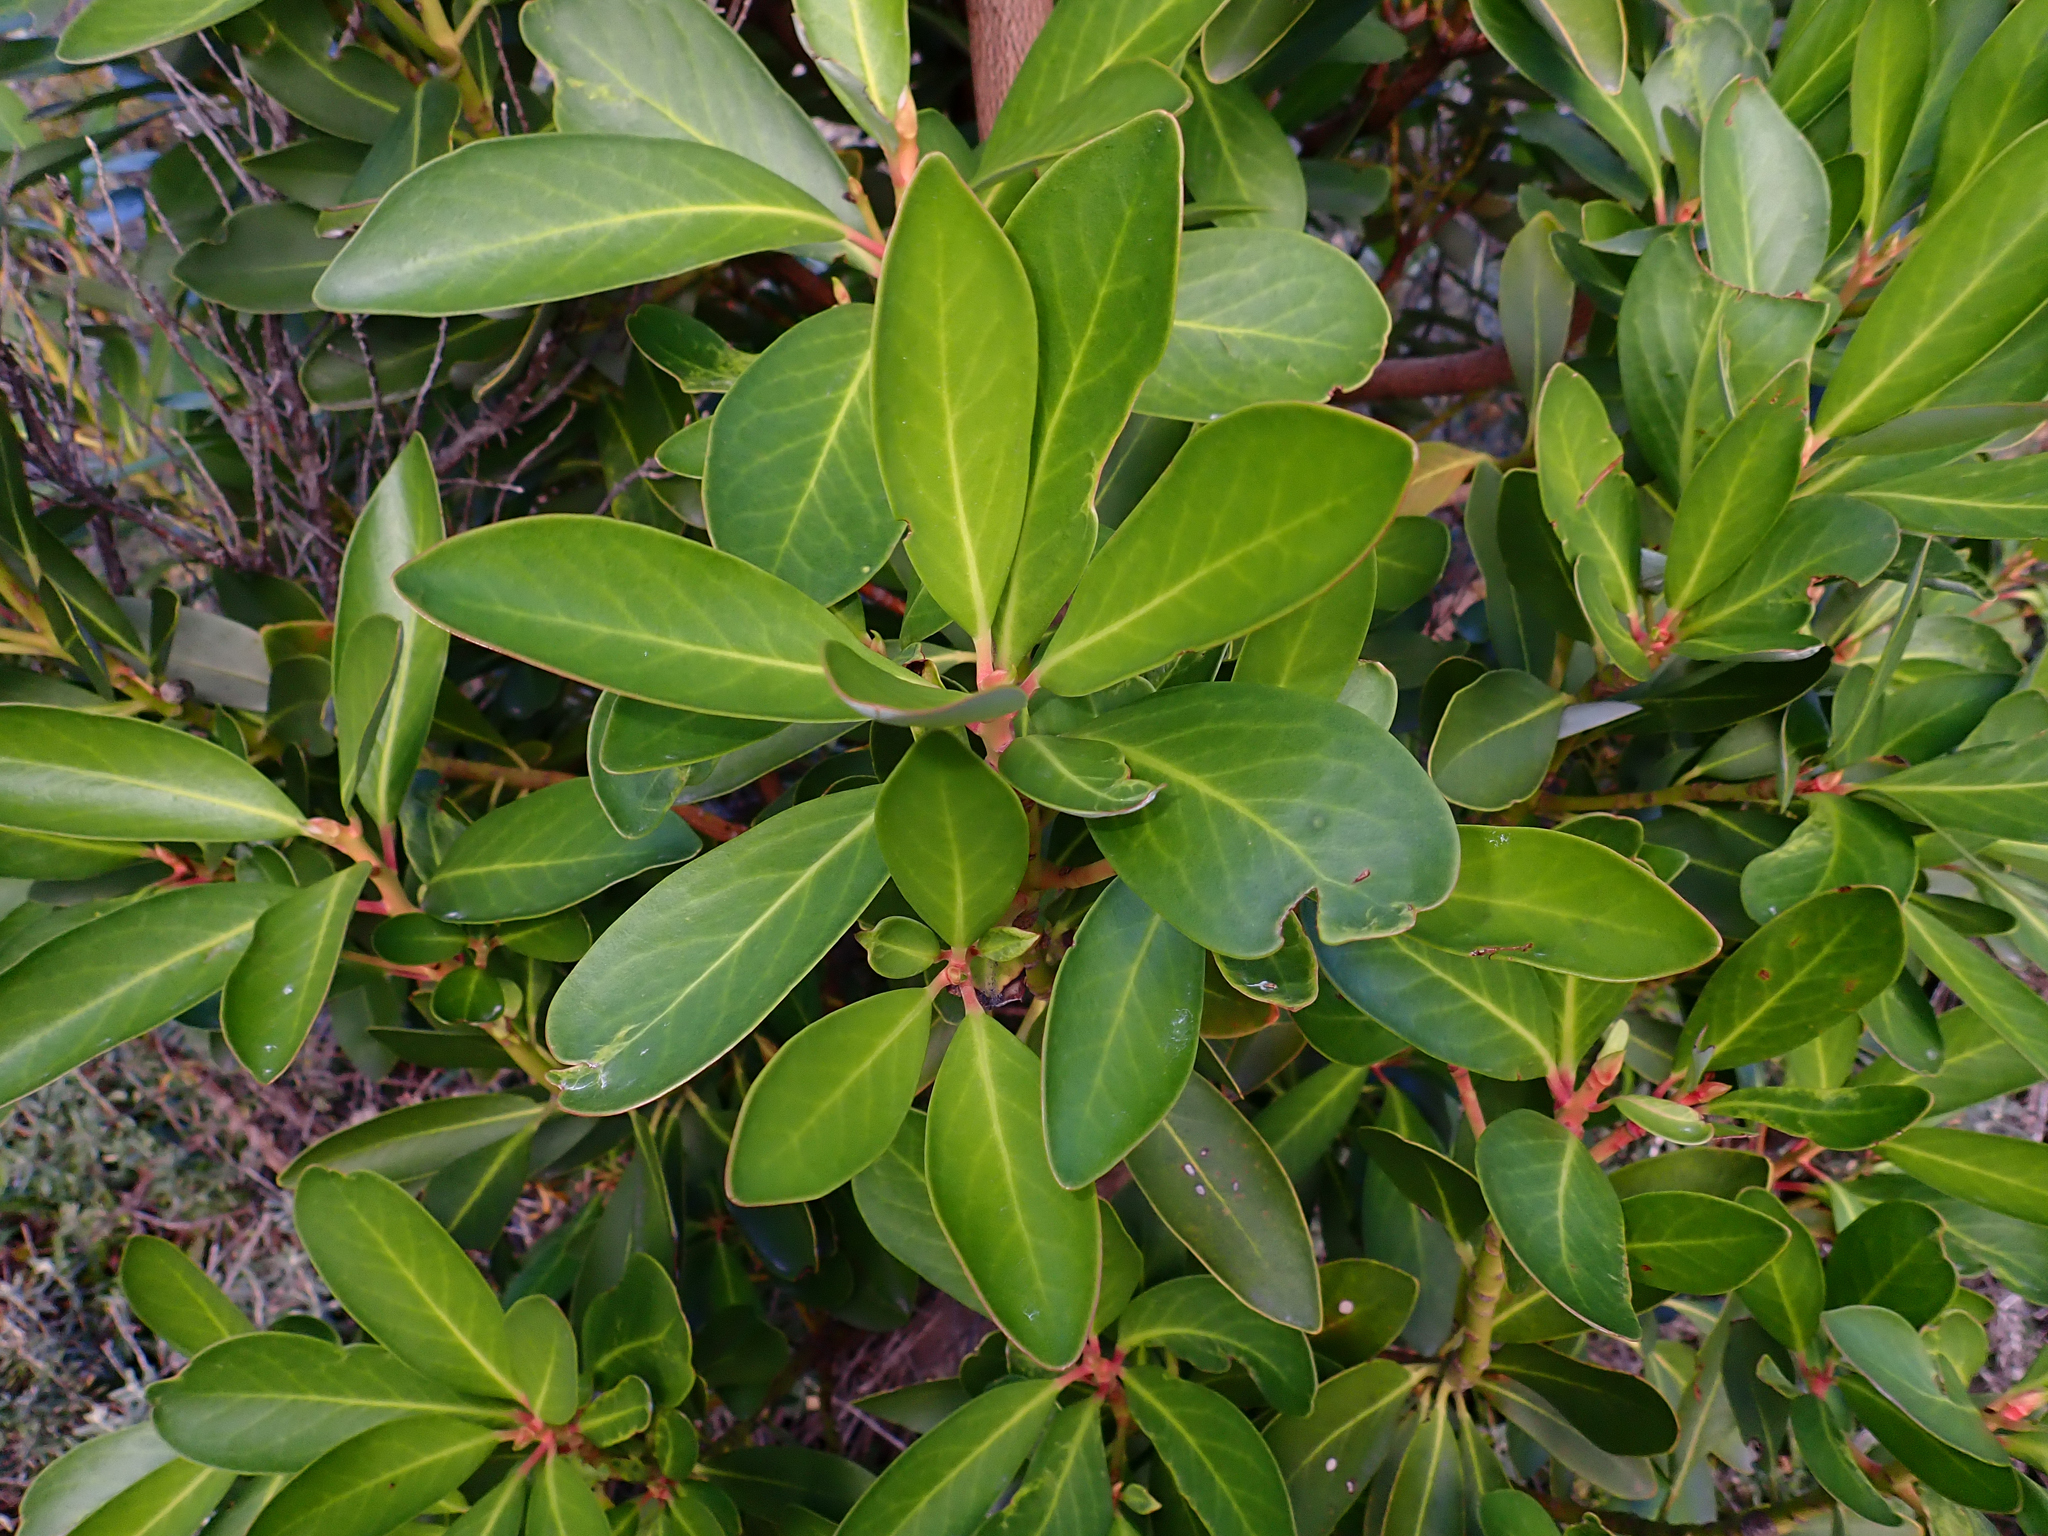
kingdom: Plantae
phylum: Tracheophyta
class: Magnoliopsida
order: Canellales
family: Winteraceae
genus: Drimys
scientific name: Drimys winteri
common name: Winter's-bark
